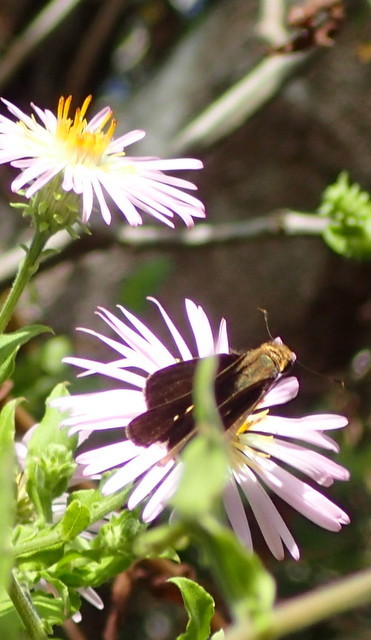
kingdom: Animalia
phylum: Arthropoda
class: Insecta
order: Lepidoptera
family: Hesperiidae
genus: Urbanus
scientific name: Urbanus proteus
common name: Long-tailed skipper
